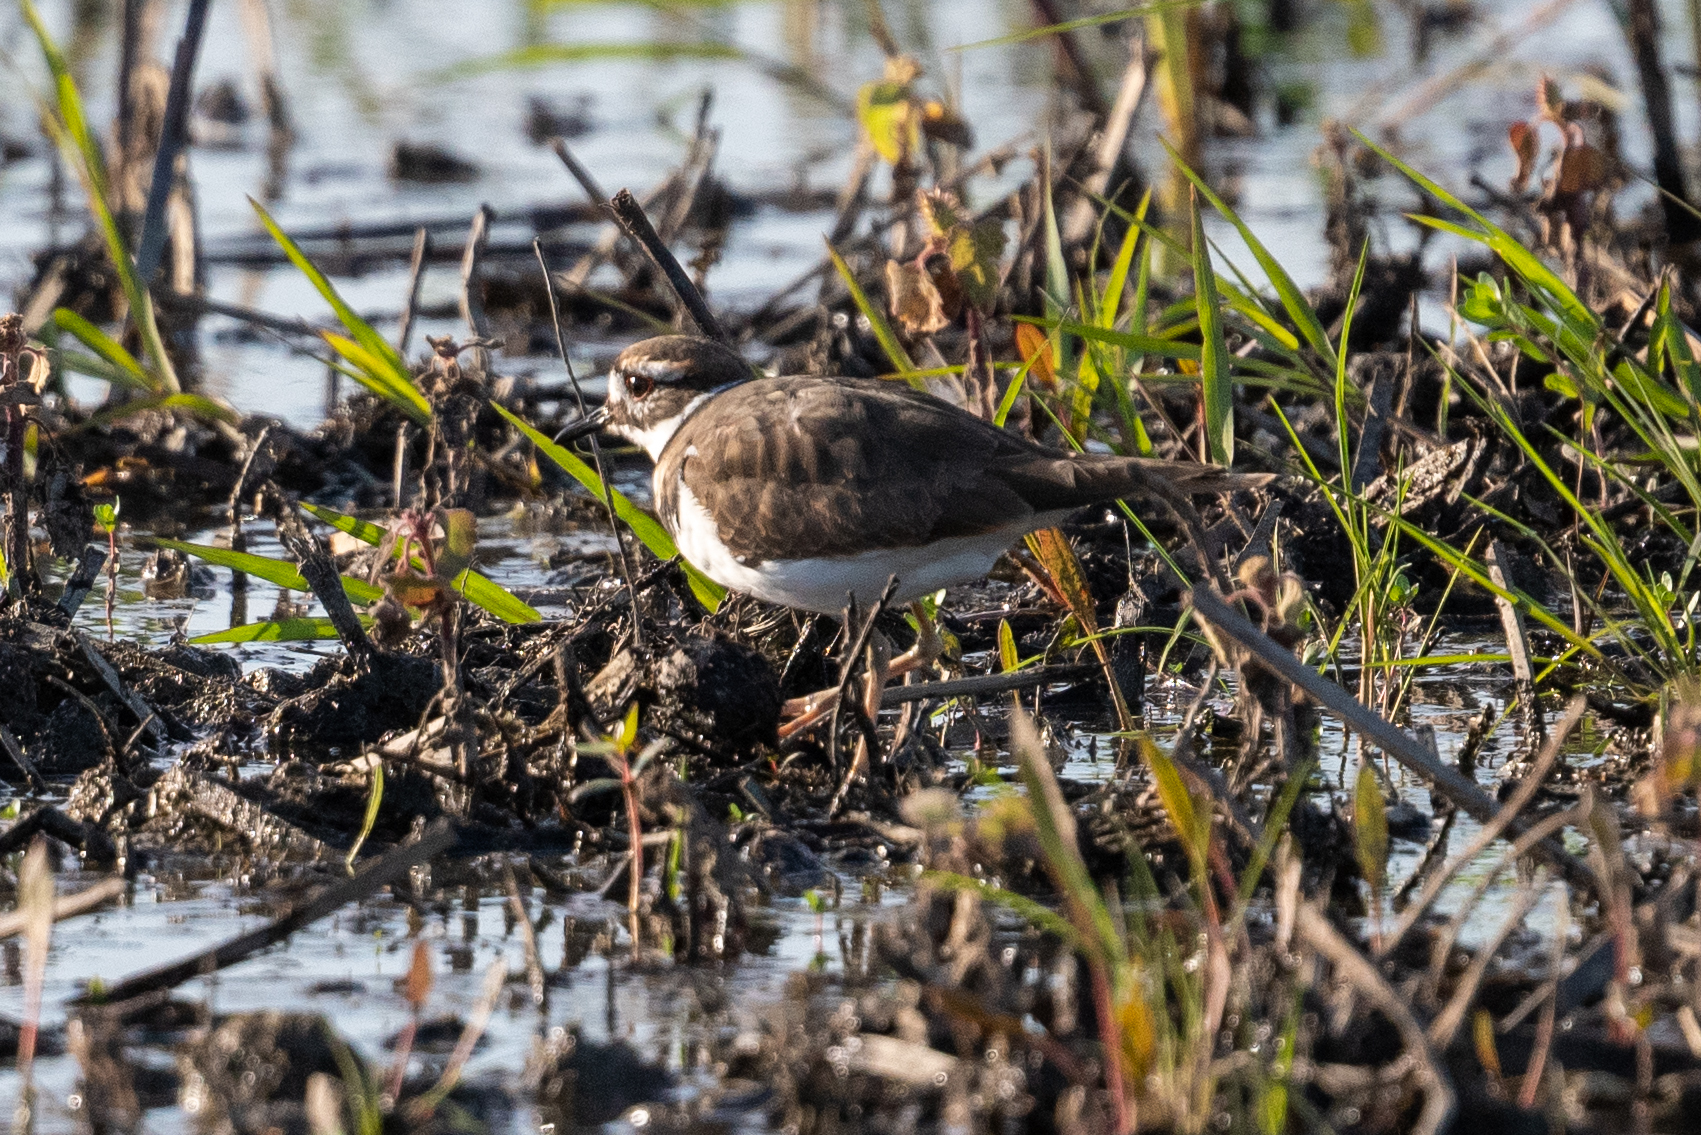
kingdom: Animalia
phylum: Chordata
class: Aves
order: Charadriiformes
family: Charadriidae
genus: Charadrius
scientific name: Charadrius vociferus
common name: Killdeer
